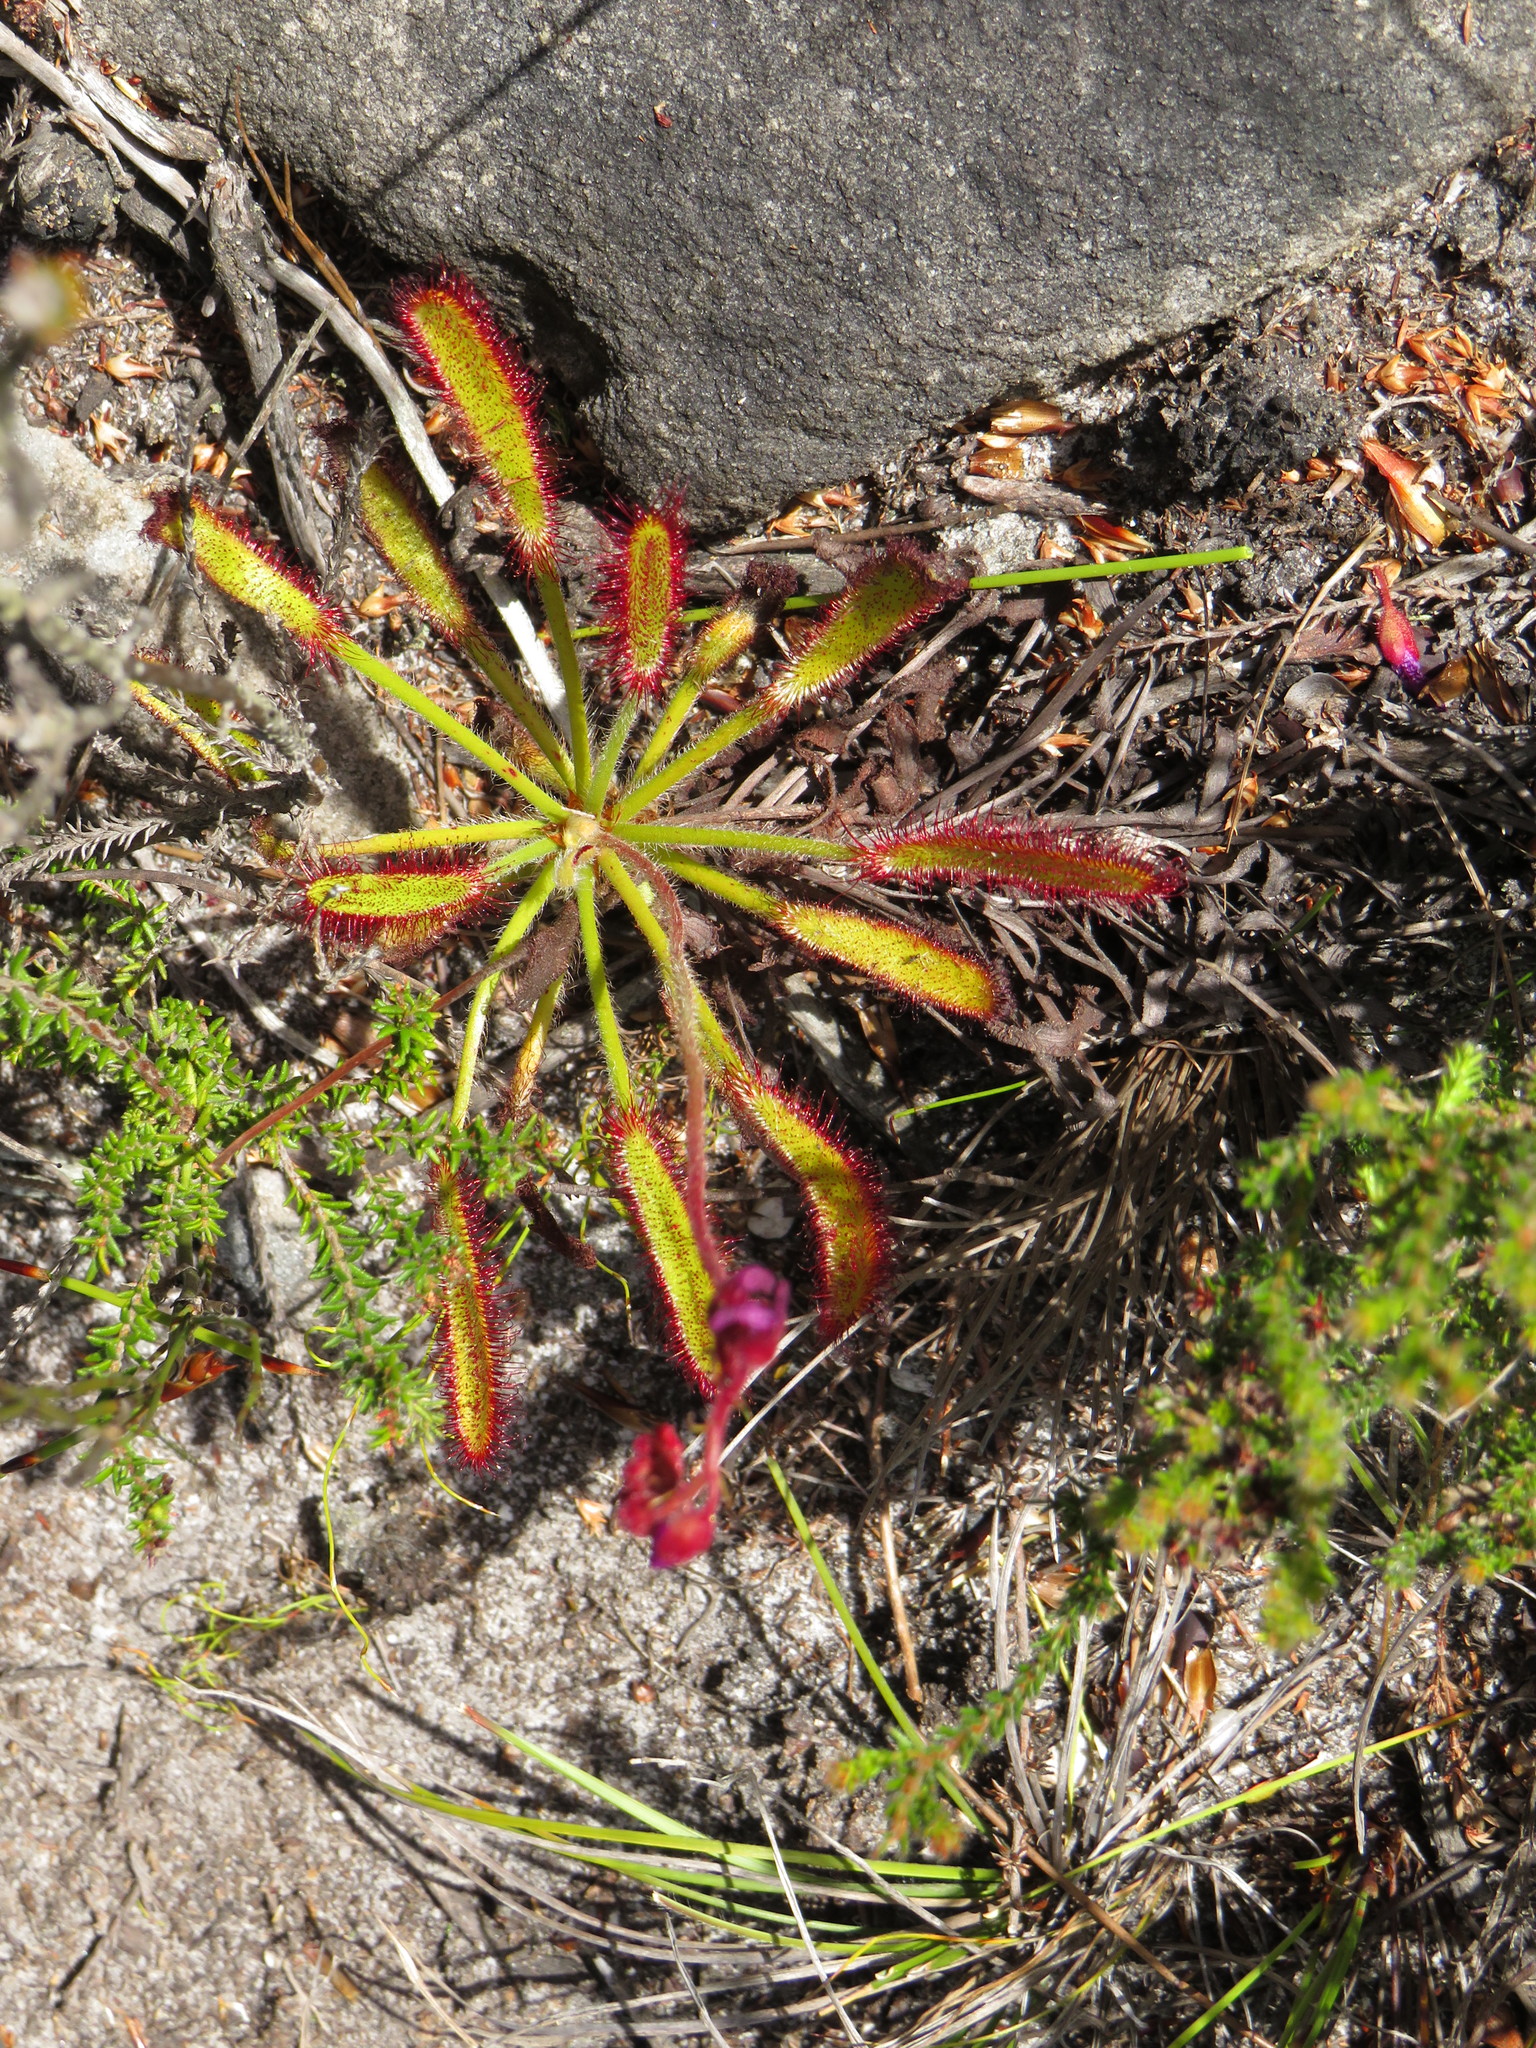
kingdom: Plantae
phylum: Tracheophyta
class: Magnoliopsida
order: Caryophyllales
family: Droseraceae
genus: Drosera
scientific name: Drosera ramentacea
